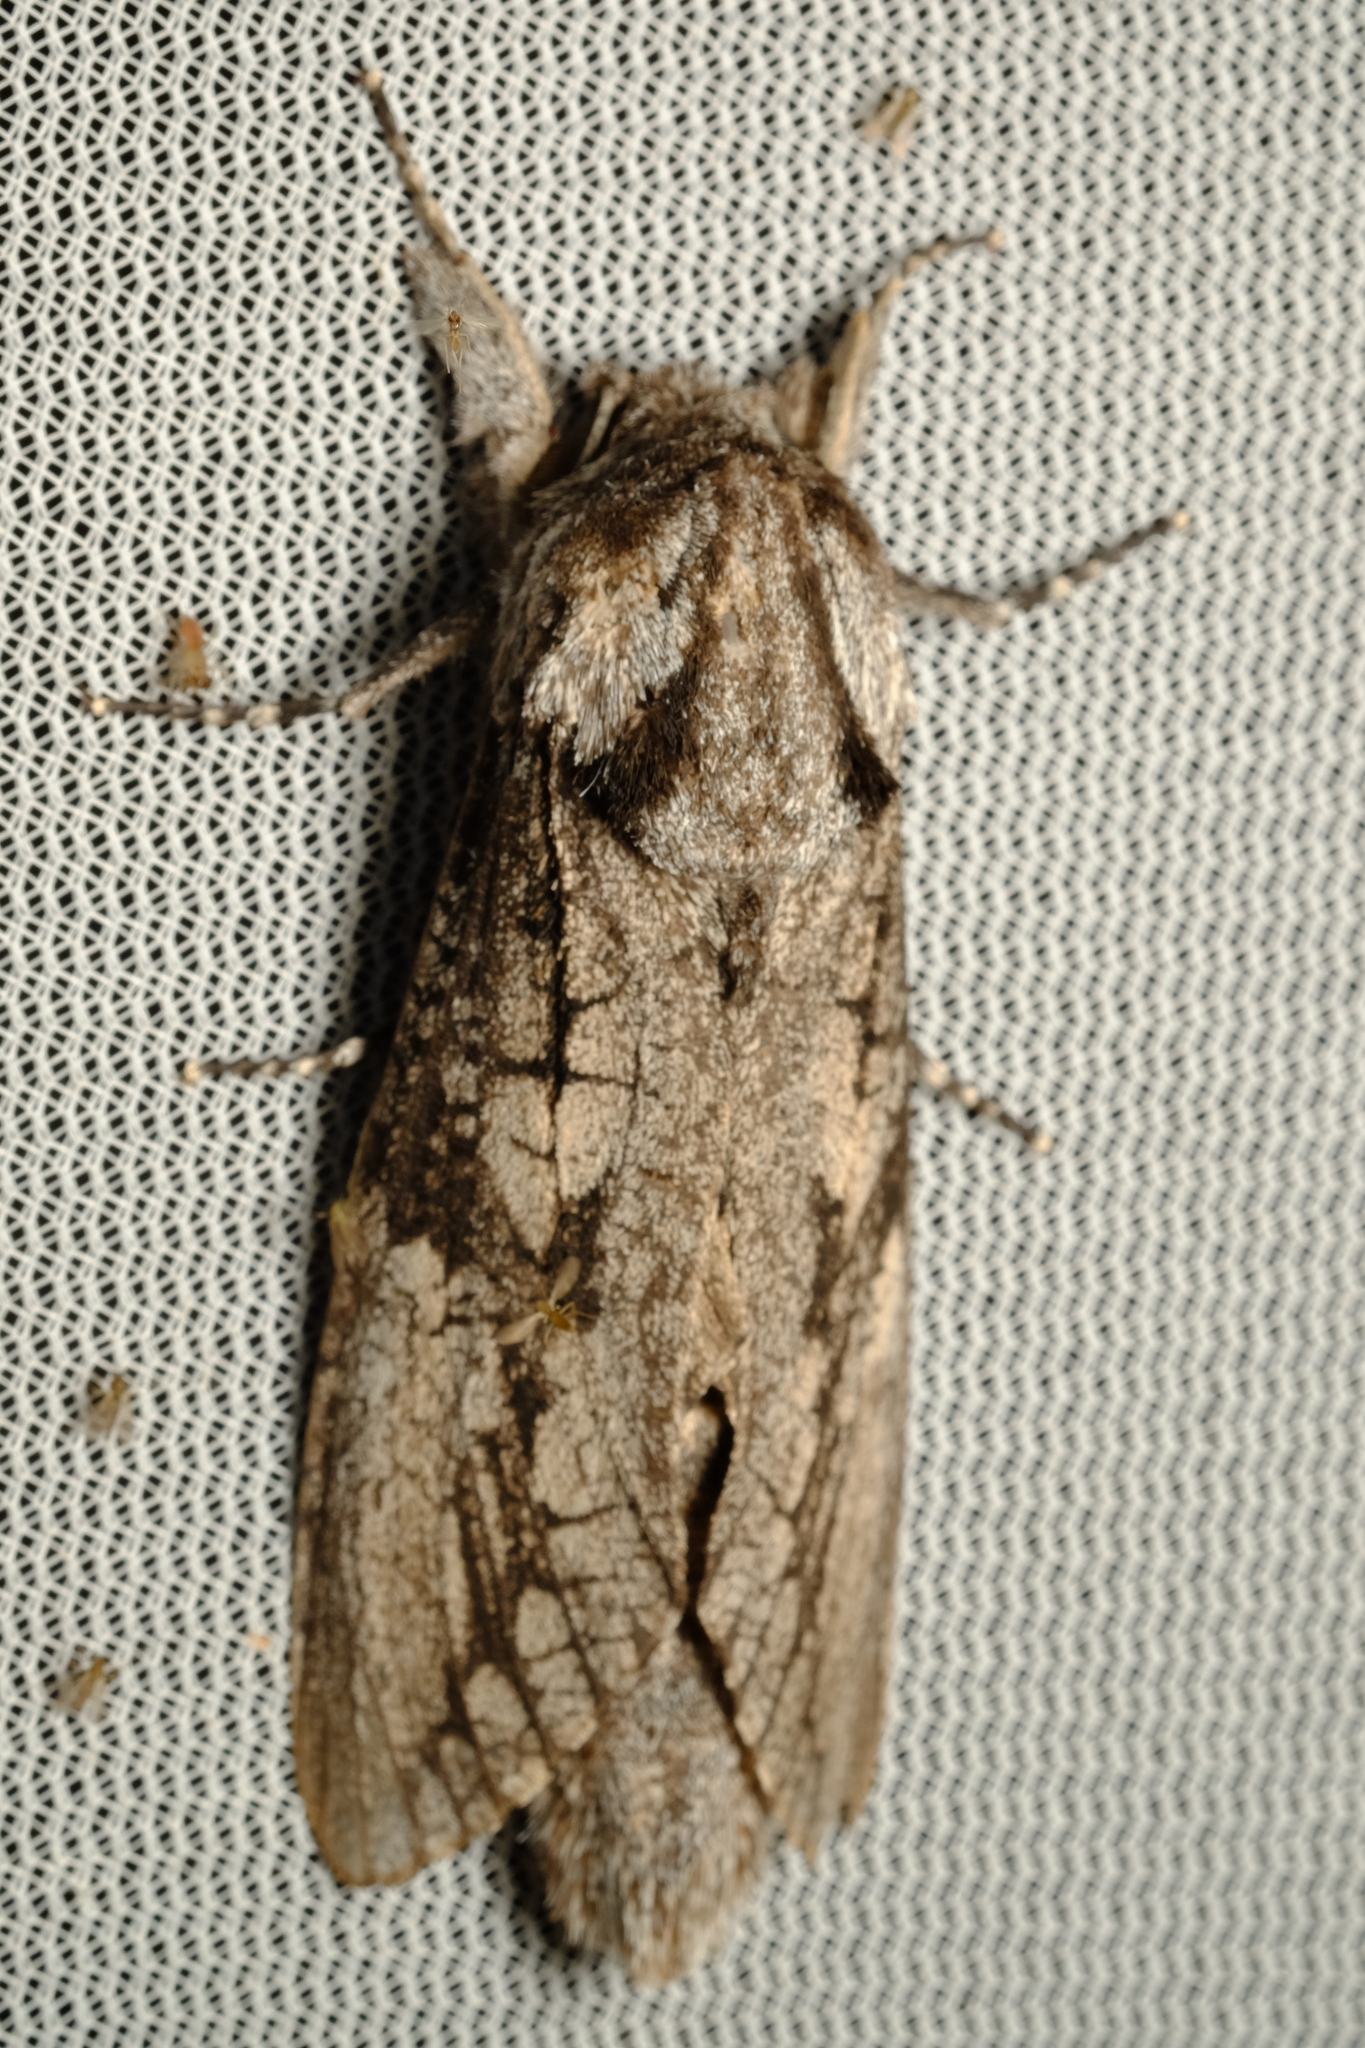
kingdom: Animalia
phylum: Arthropoda
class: Insecta
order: Lepidoptera
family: Cossidae
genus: Endoxyla
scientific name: Endoxyla lichenea
